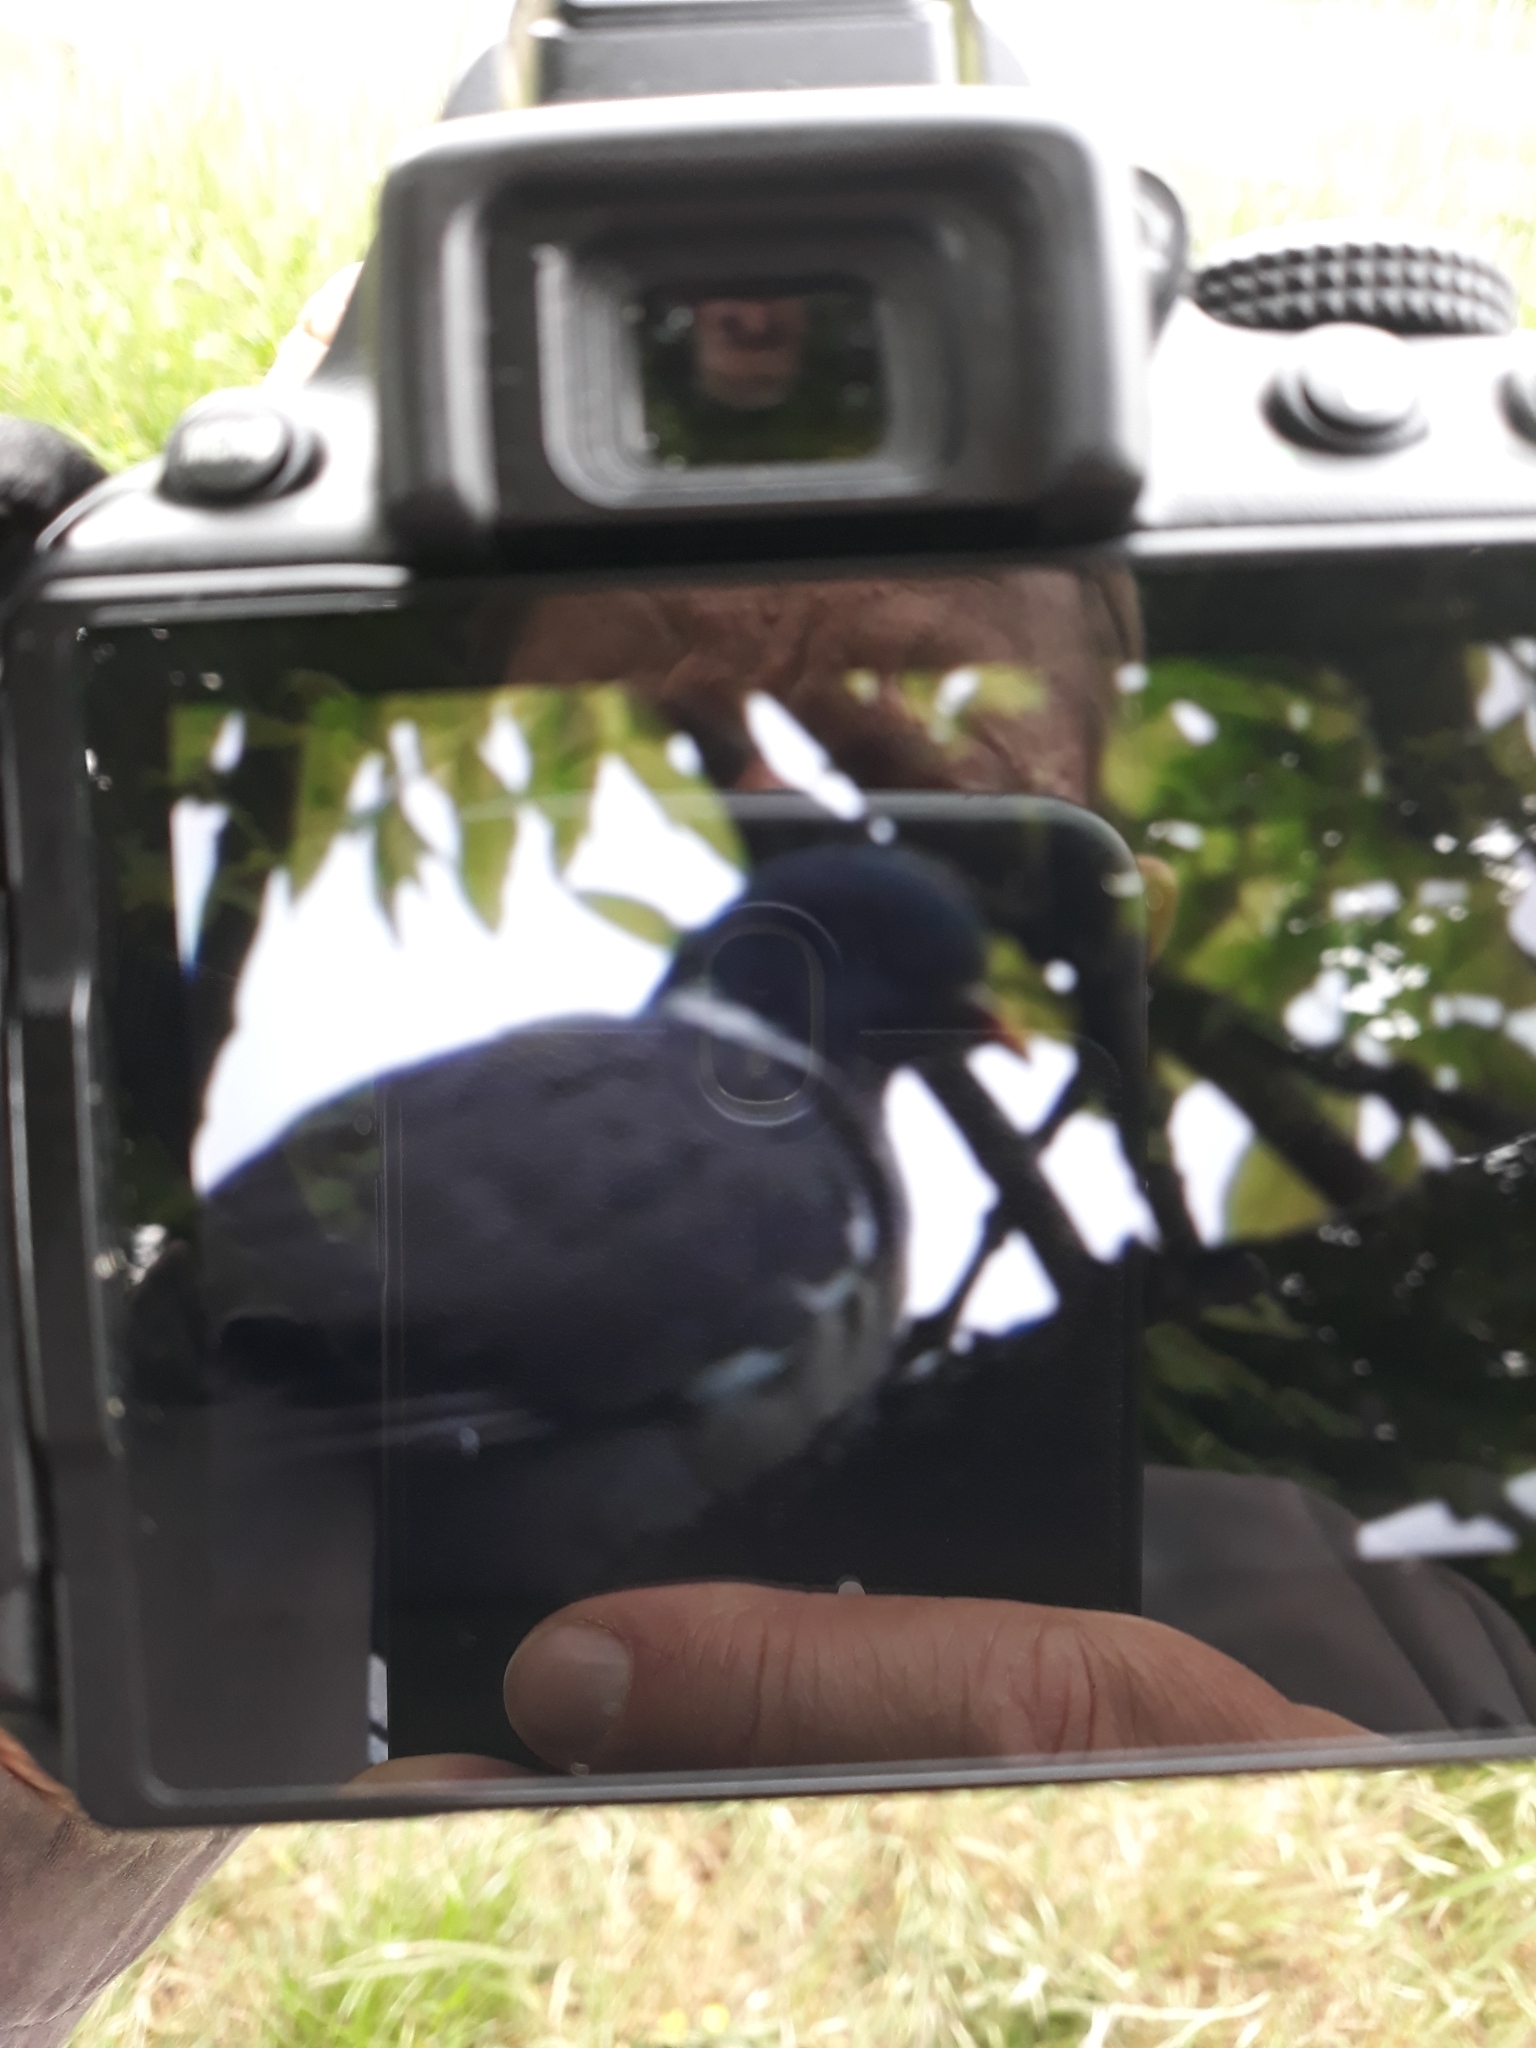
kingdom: Animalia
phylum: Chordata
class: Aves
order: Columbiformes
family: Columbidae
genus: Columba
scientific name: Columba palumbus
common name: Common wood pigeon
